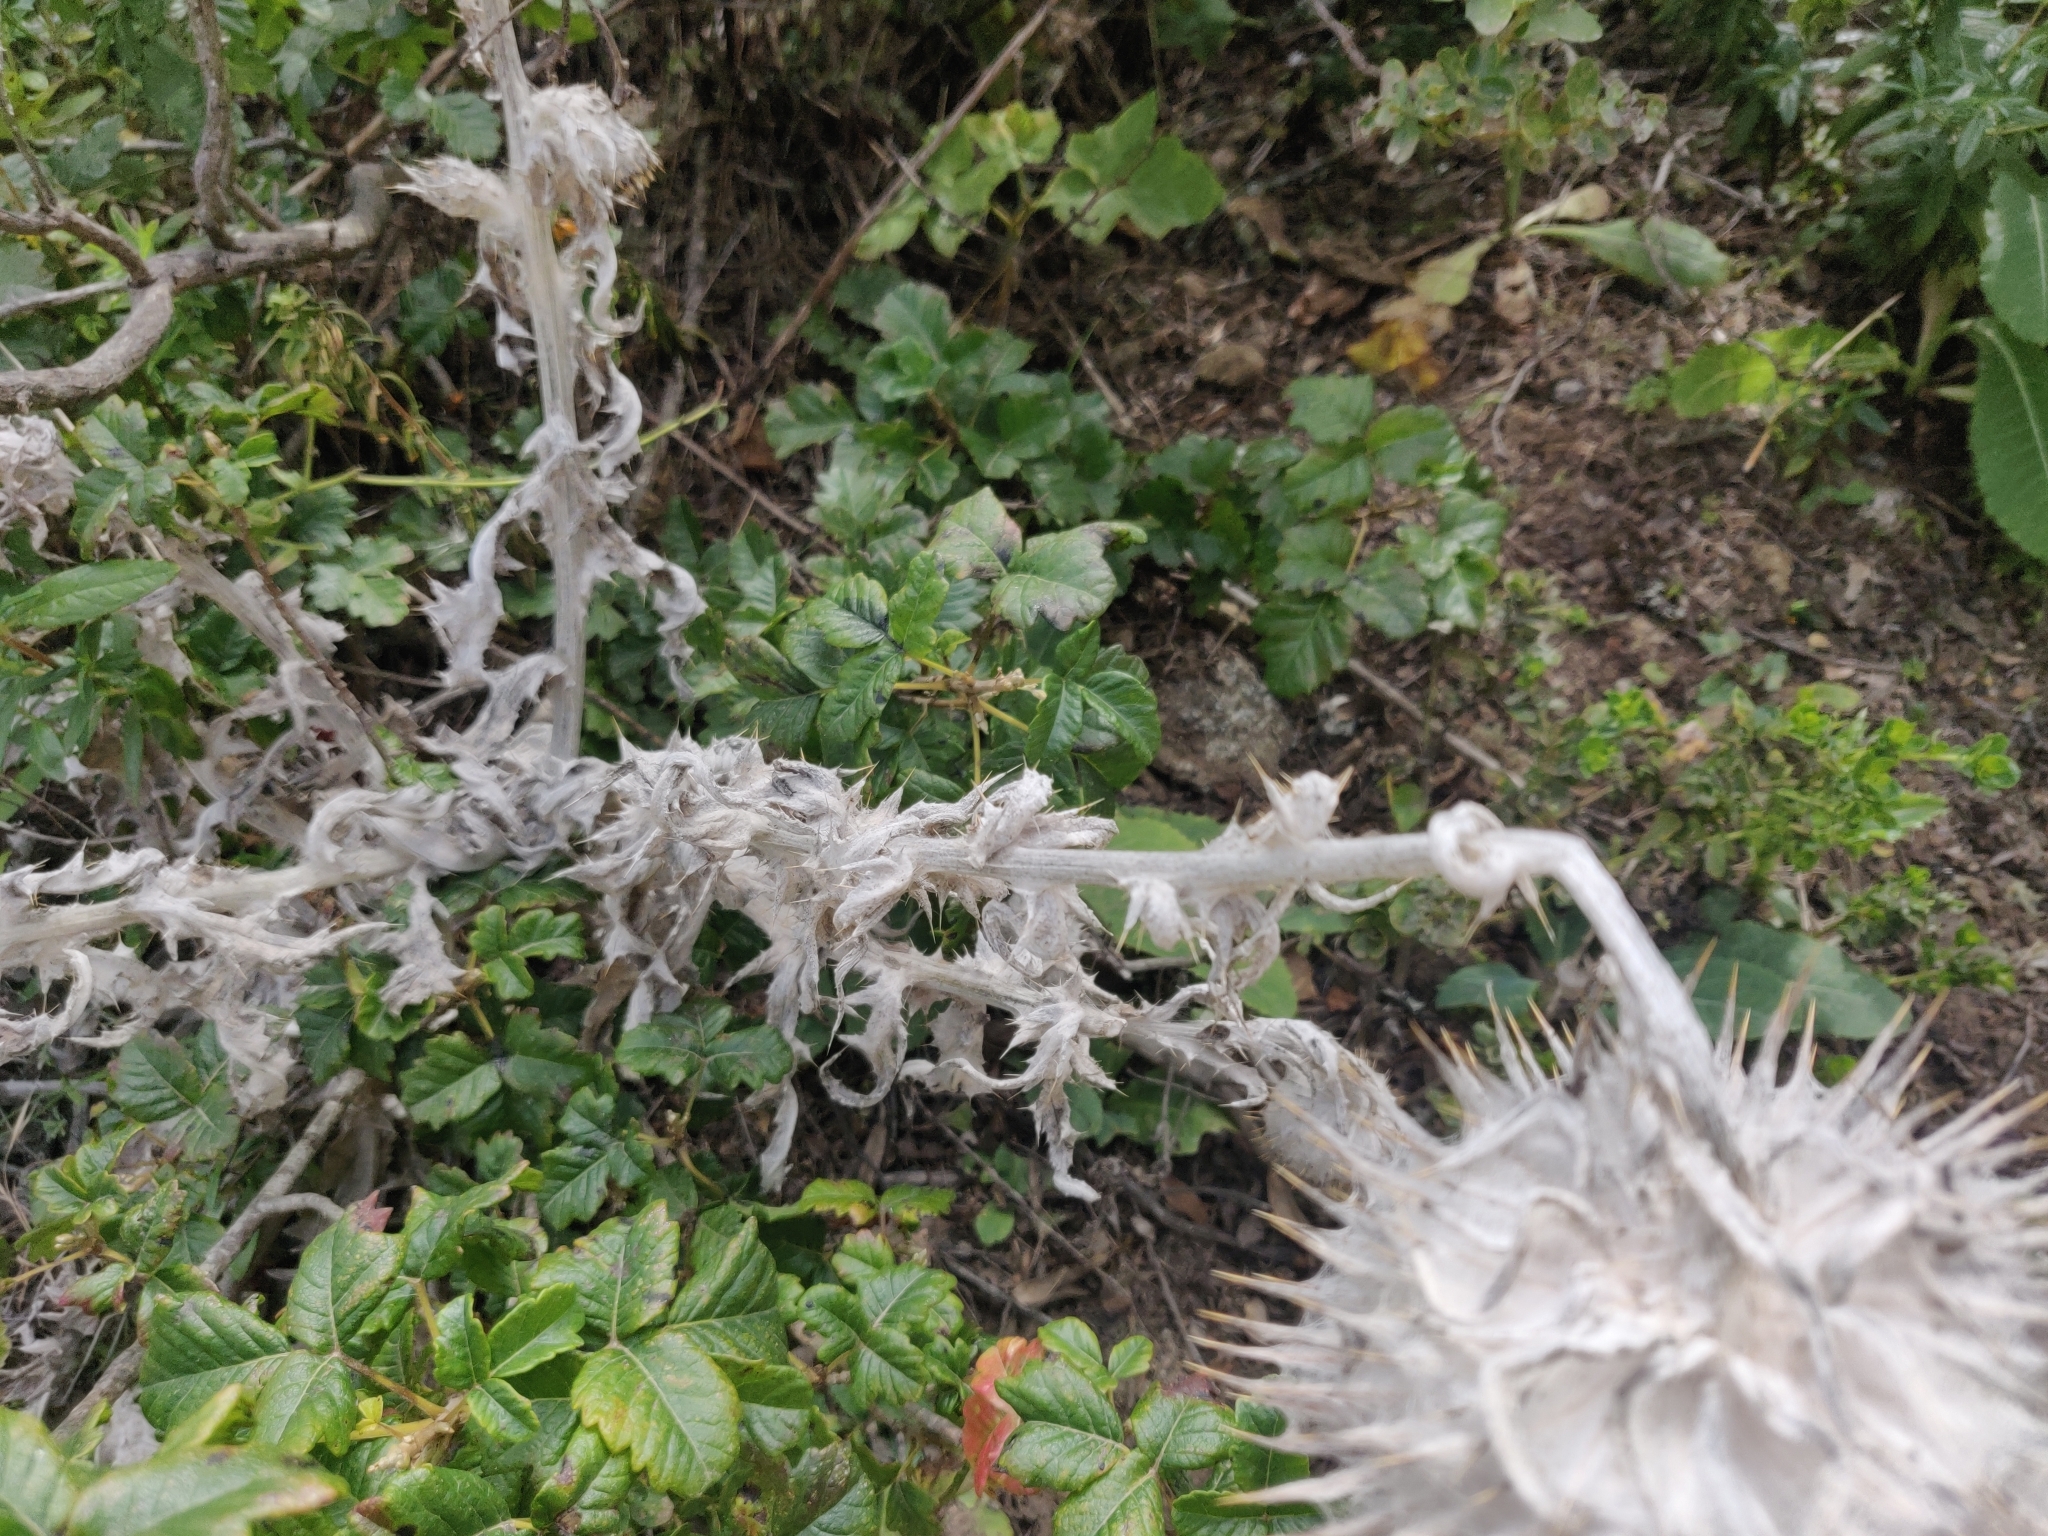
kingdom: Plantae
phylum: Tracheophyta
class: Magnoliopsida
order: Asterales
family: Asteraceae
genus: Cirsium
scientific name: Cirsium occidentale
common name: Western thistle
